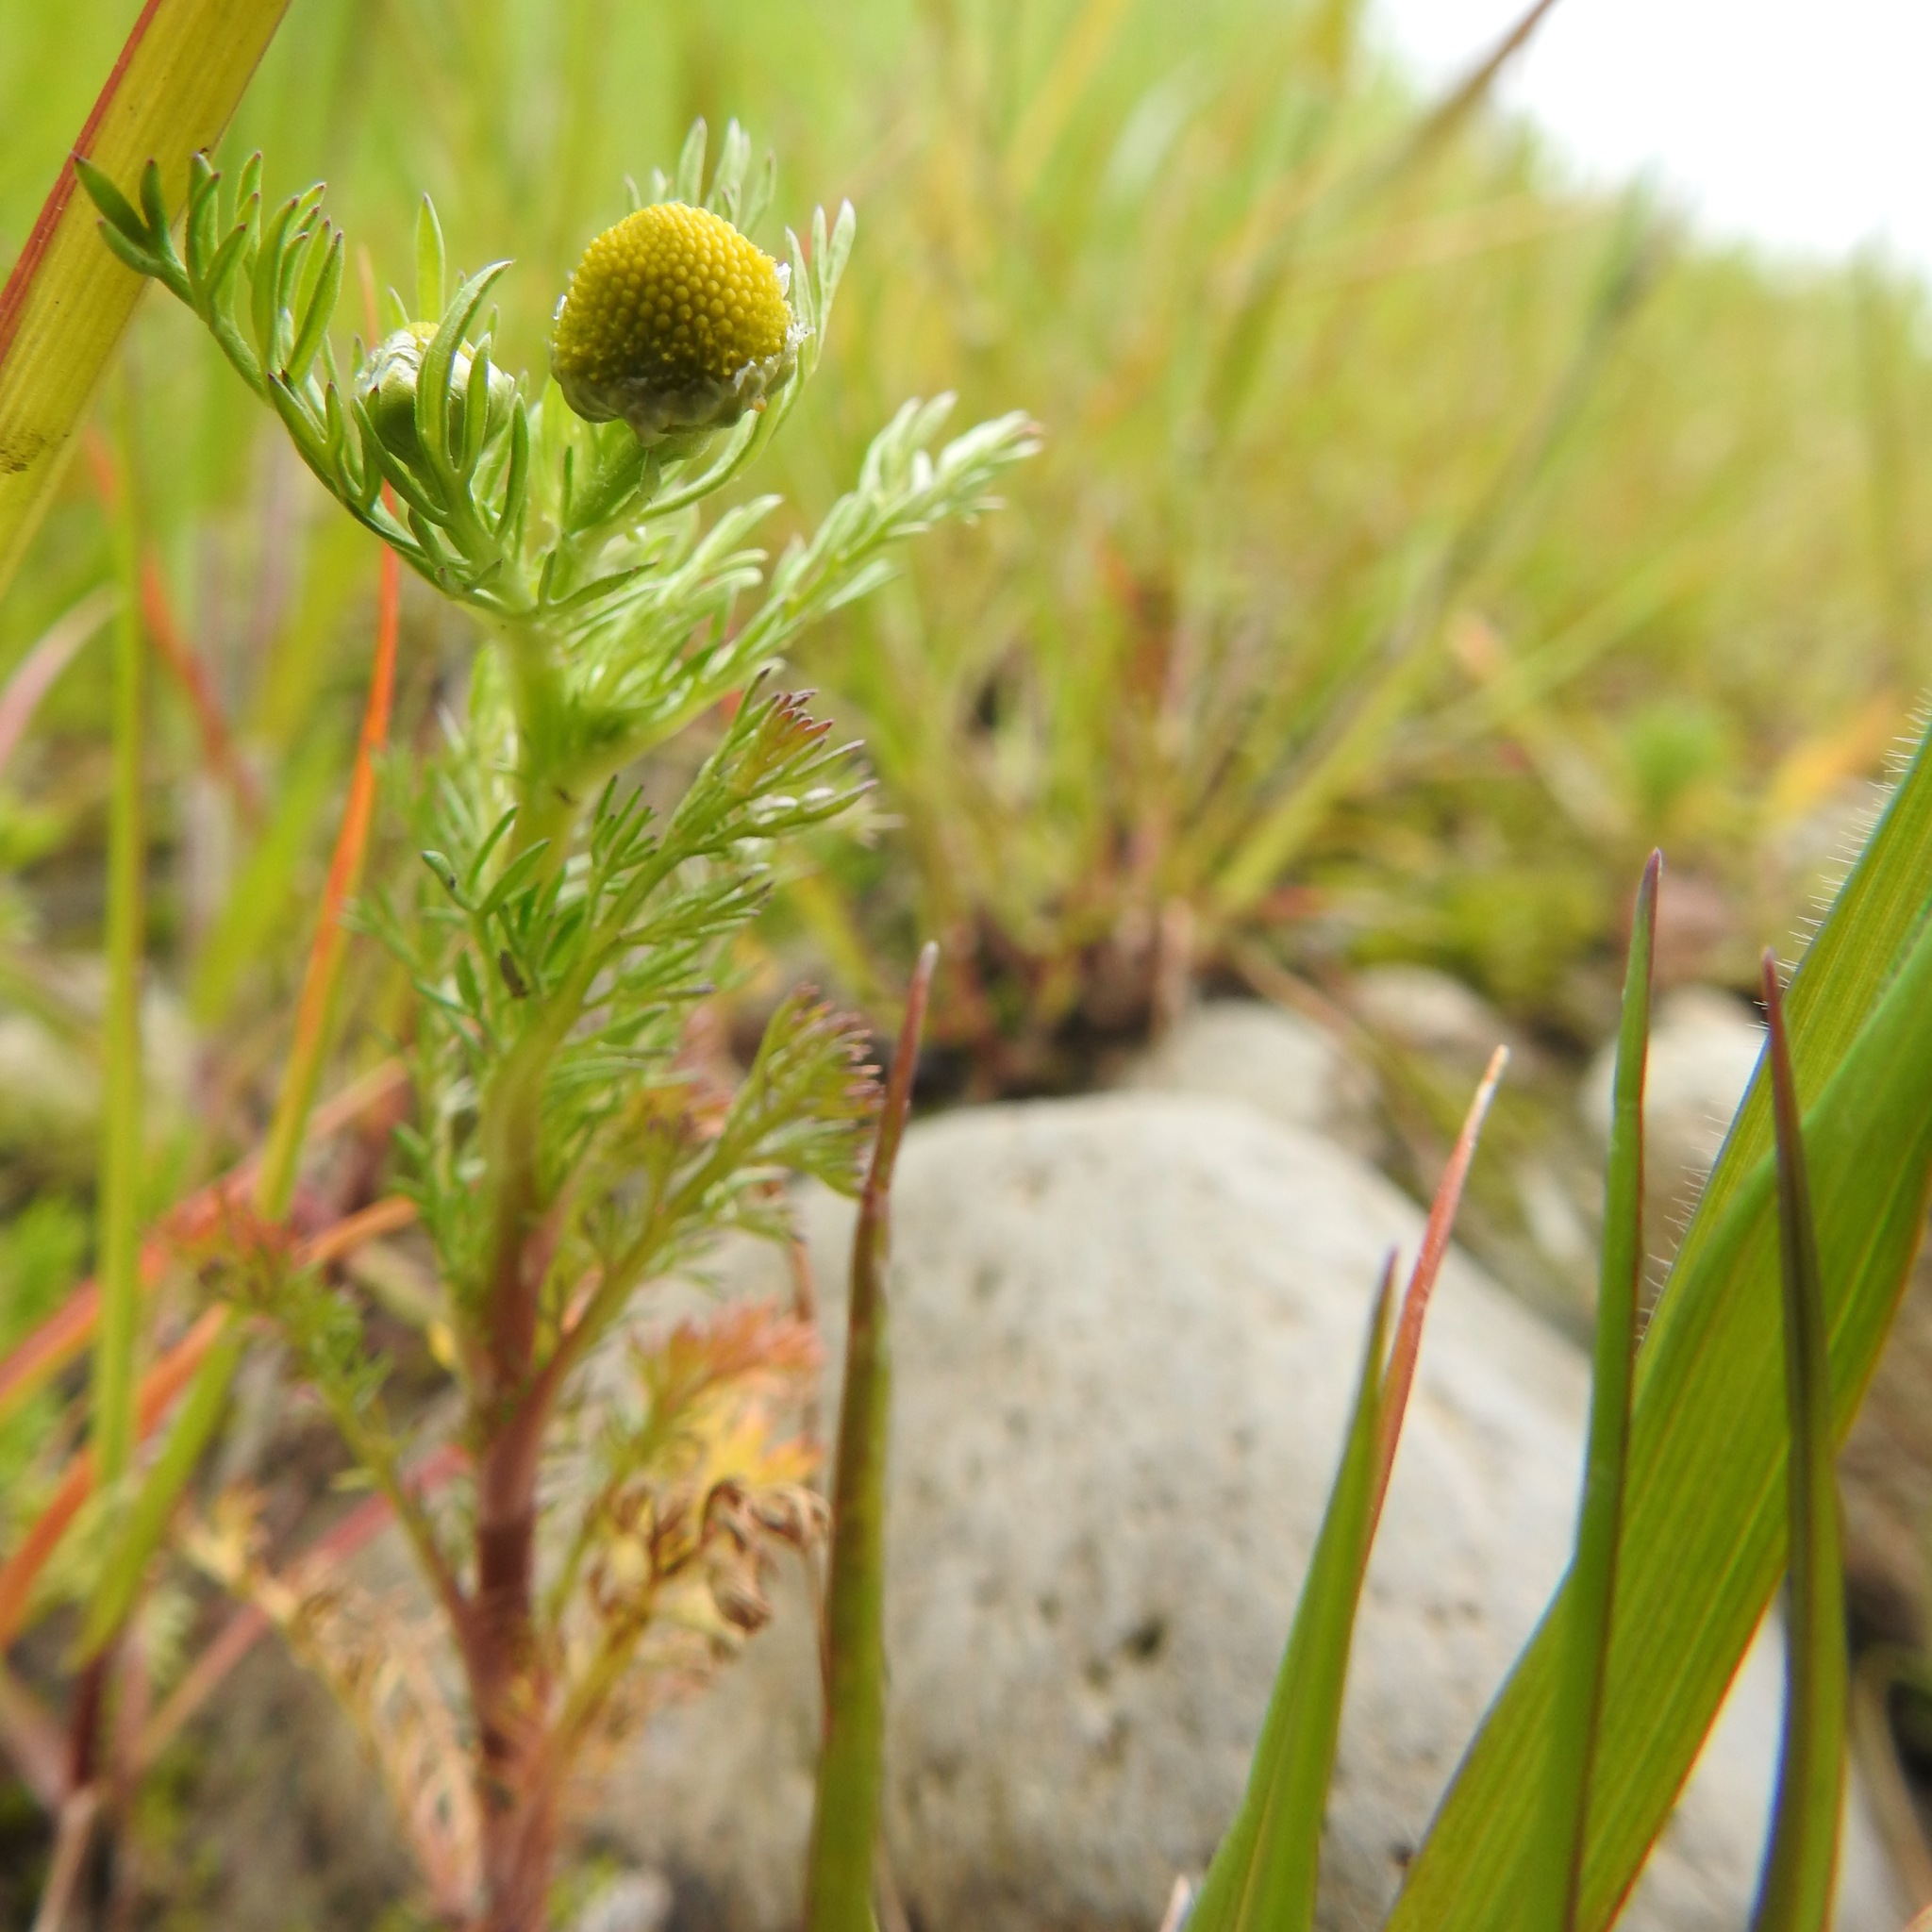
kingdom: Plantae
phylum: Tracheophyta
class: Magnoliopsida
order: Asterales
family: Asteraceae
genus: Matricaria
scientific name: Matricaria discoidea
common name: Disc mayweed
